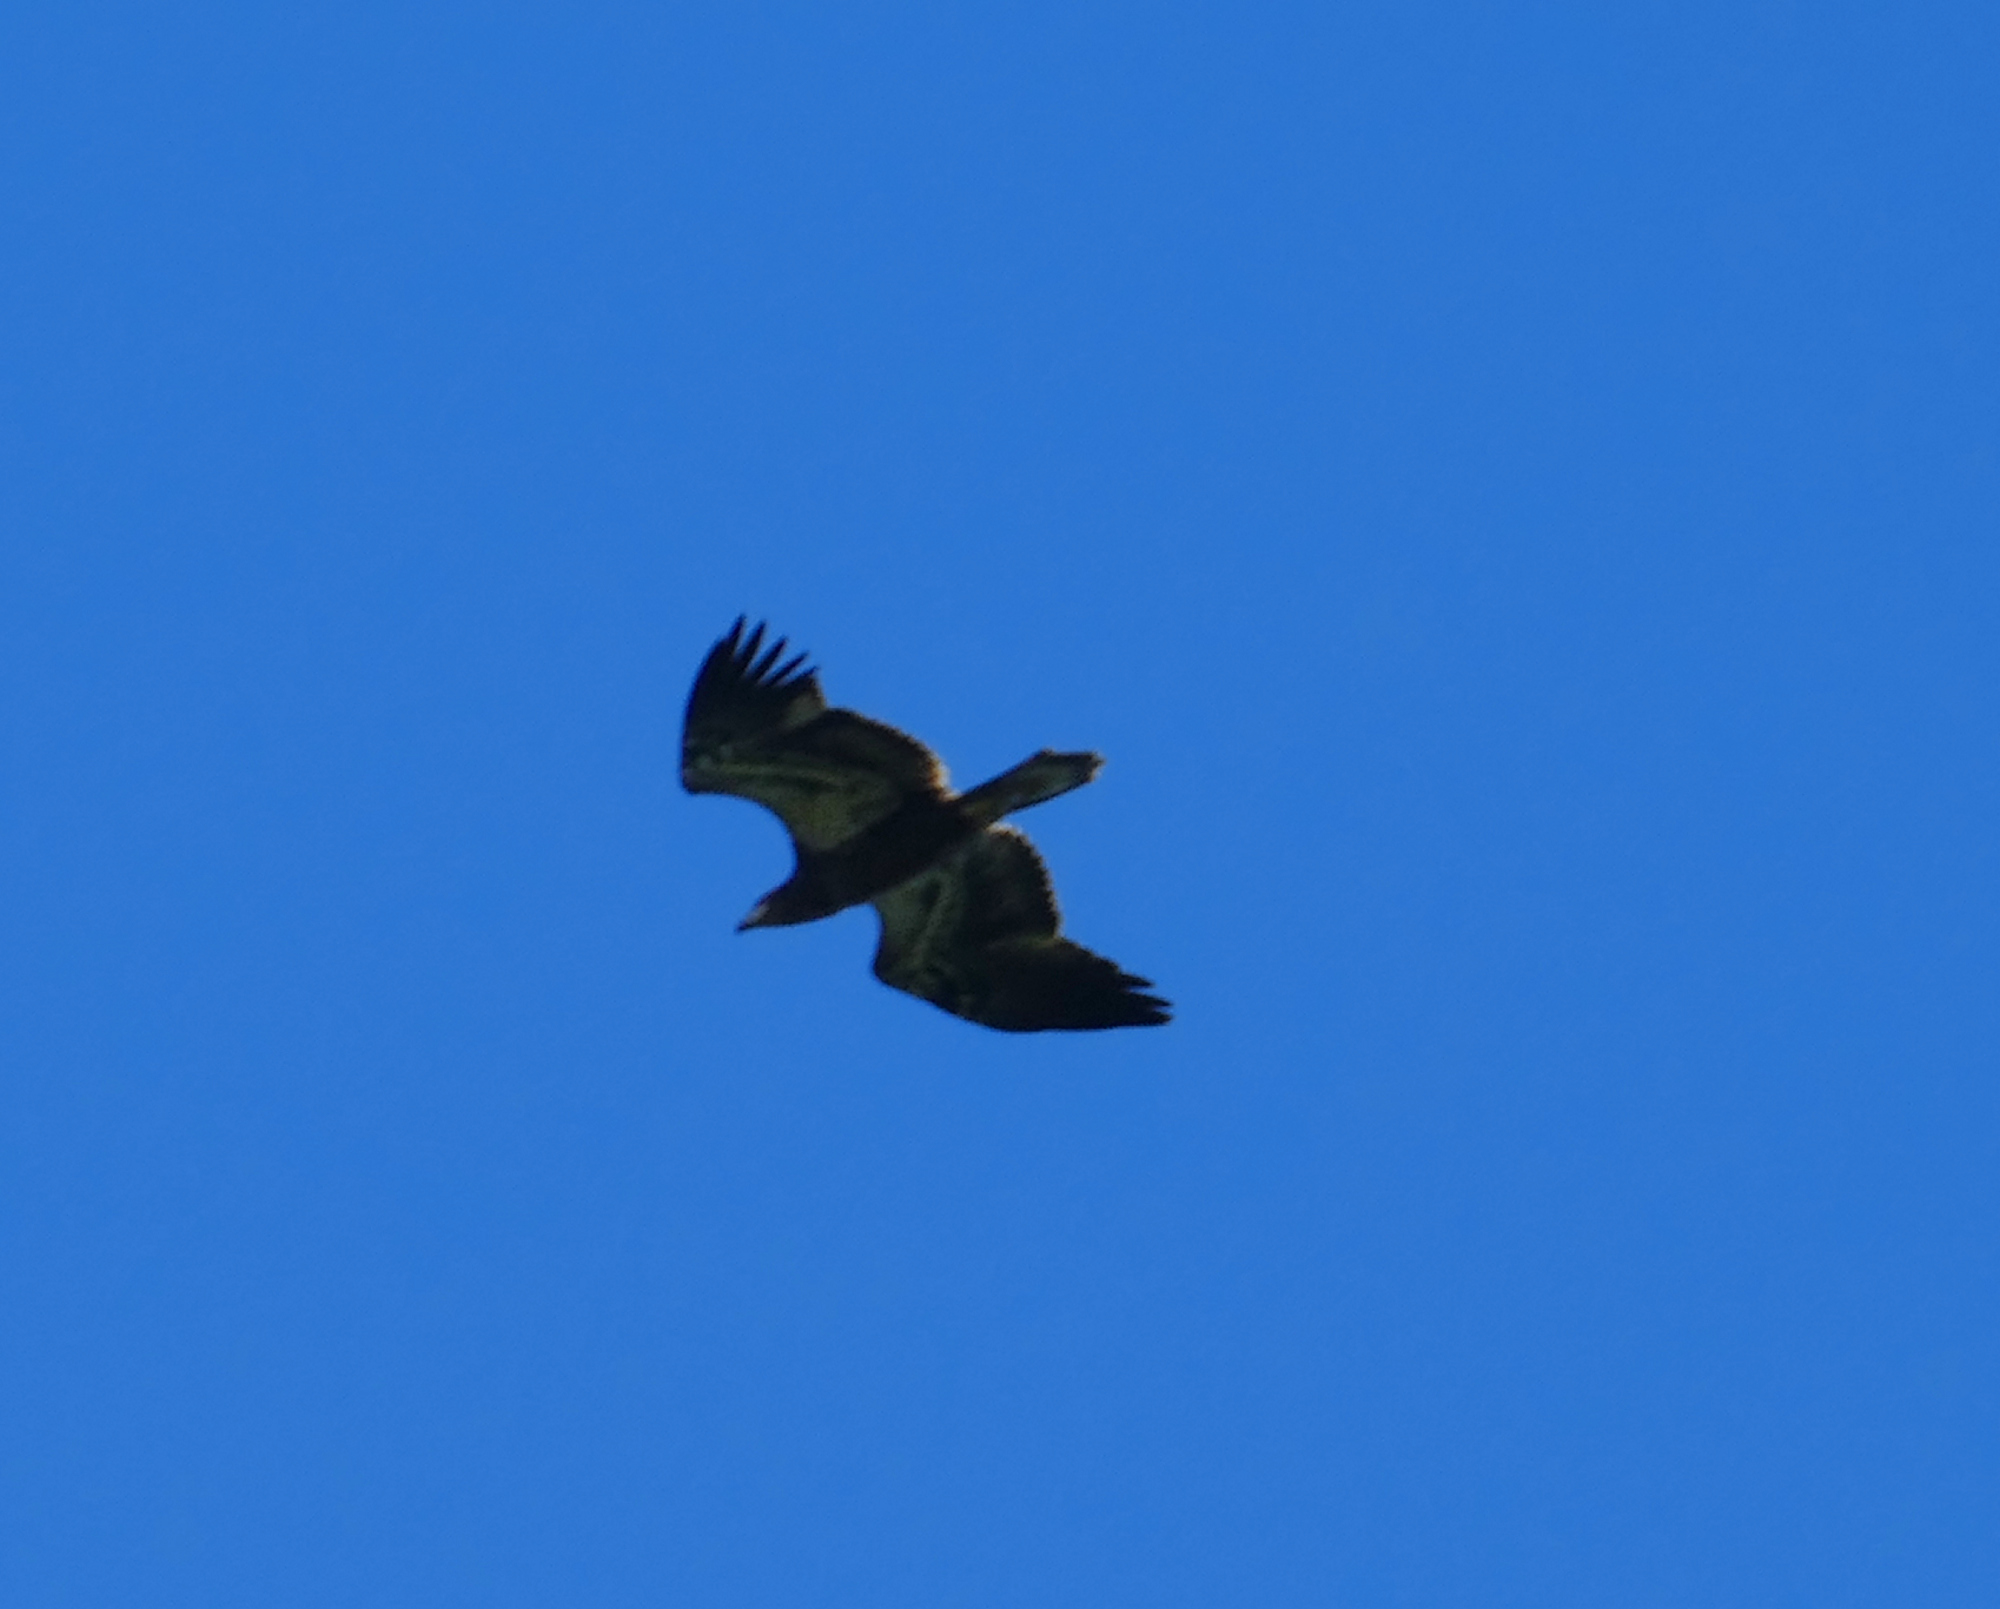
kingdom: Animalia
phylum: Chordata
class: Aves
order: Accipitriformes
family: Accipitridae
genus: Haliaeetus
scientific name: Haliaeetus leucocephalus
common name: Bald eagle
